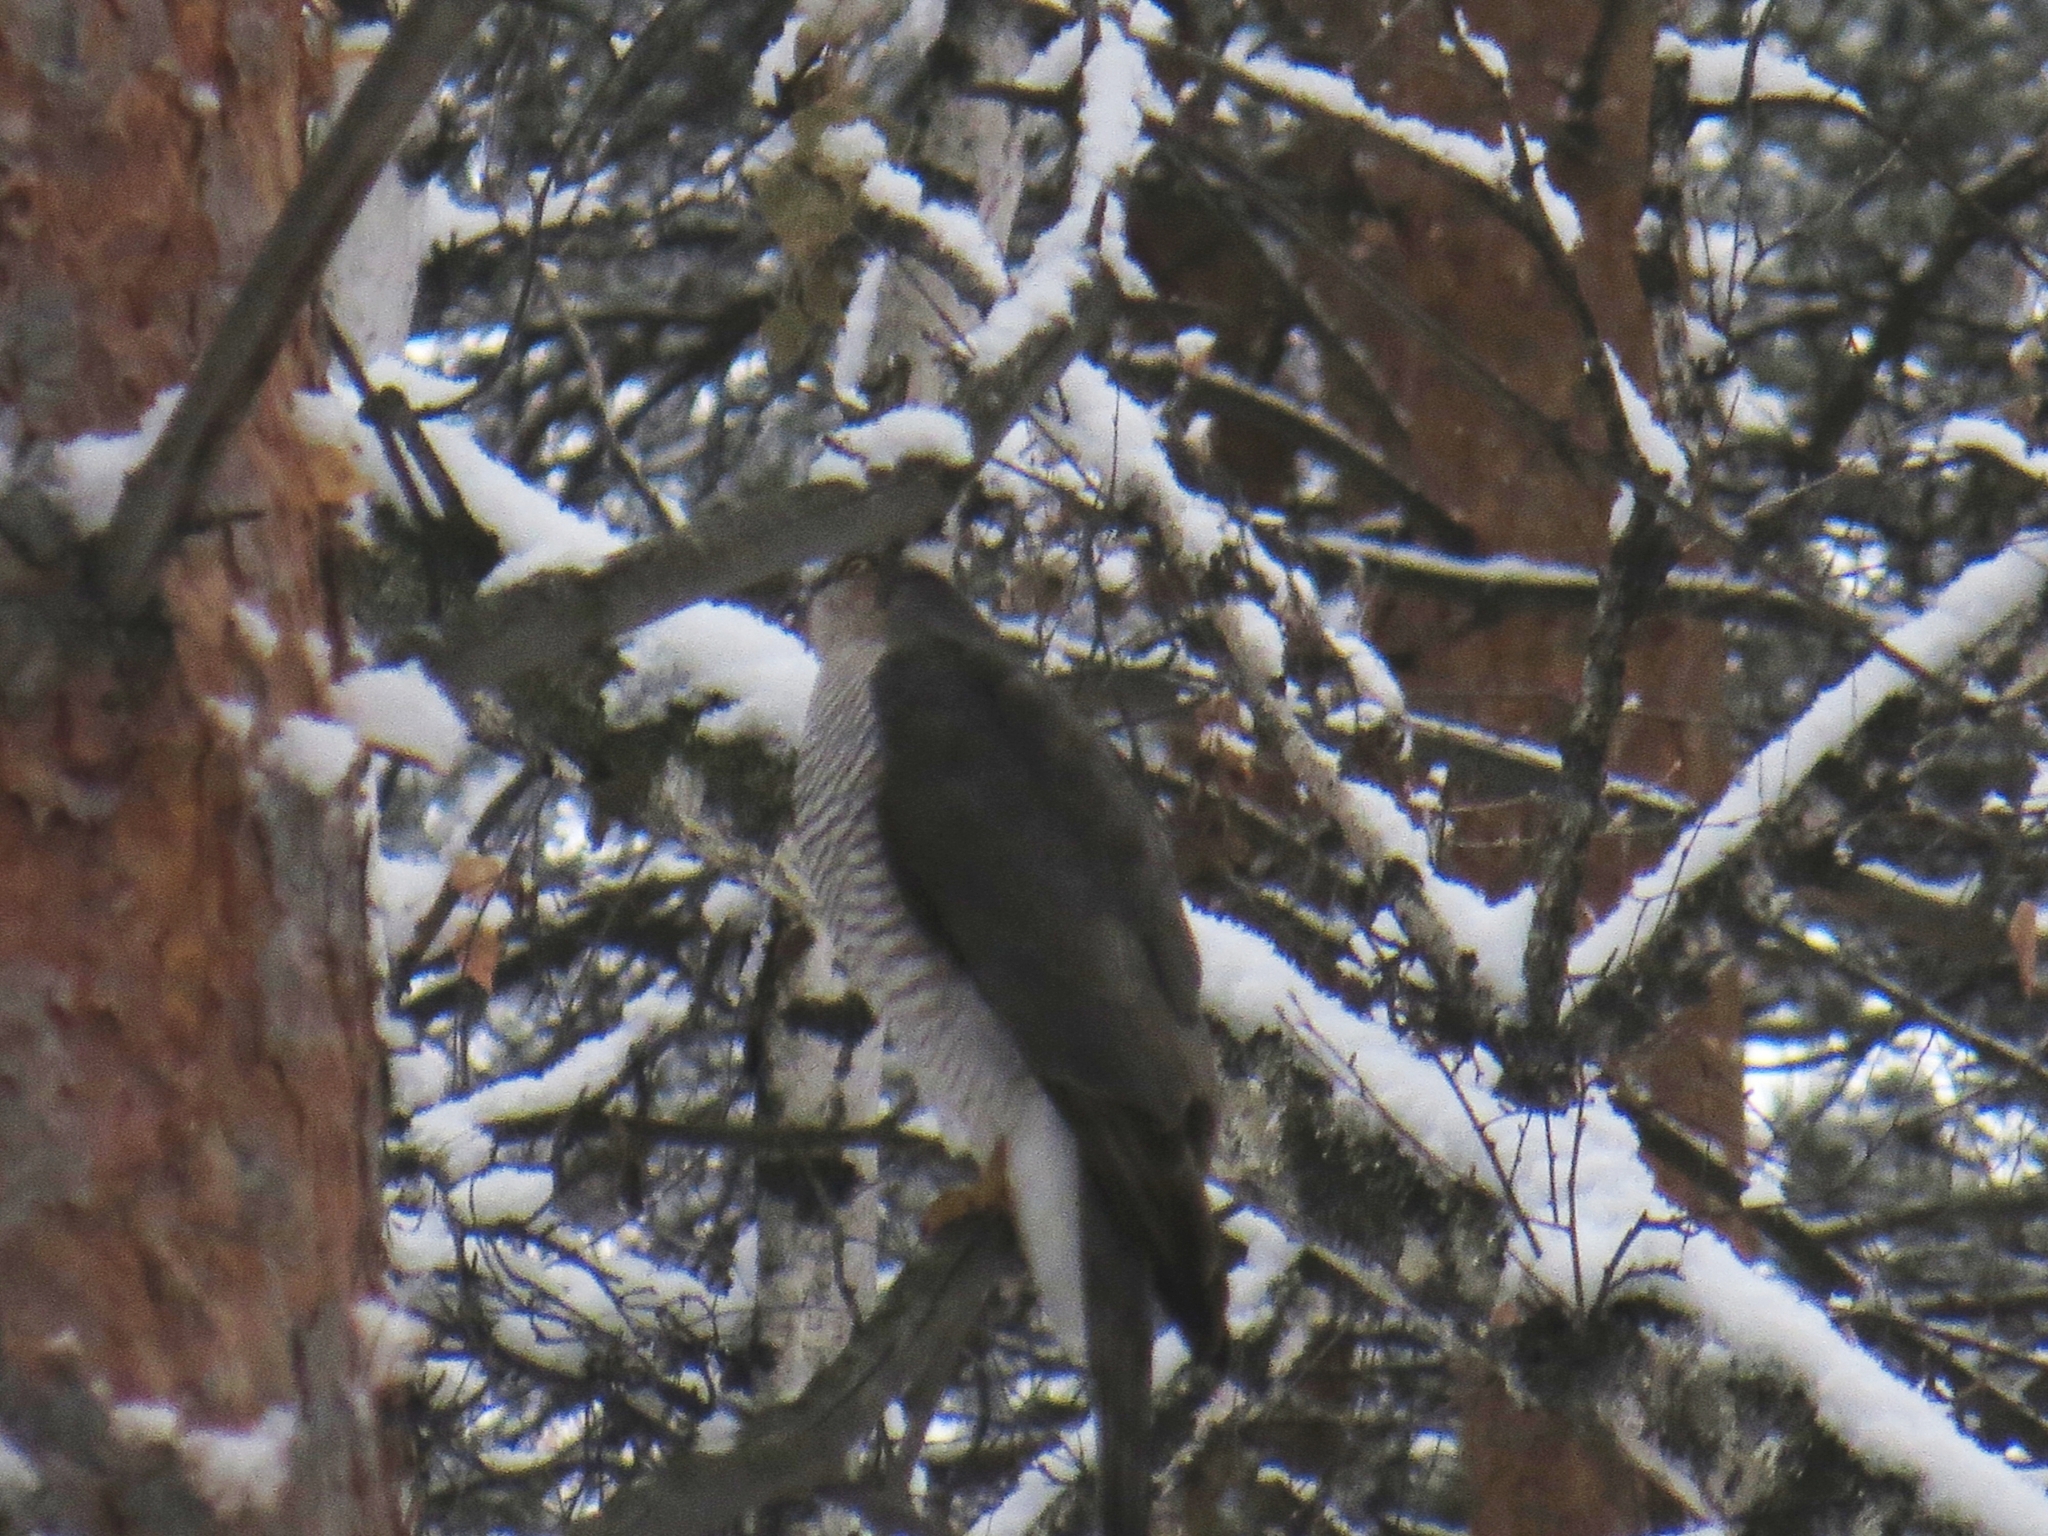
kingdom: Animalia
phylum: Chordata
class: Aves
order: Accipitriformes
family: Accipitridae
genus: Accipiter
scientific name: Accipiter nisus
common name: Eurasian sparrowhawk
